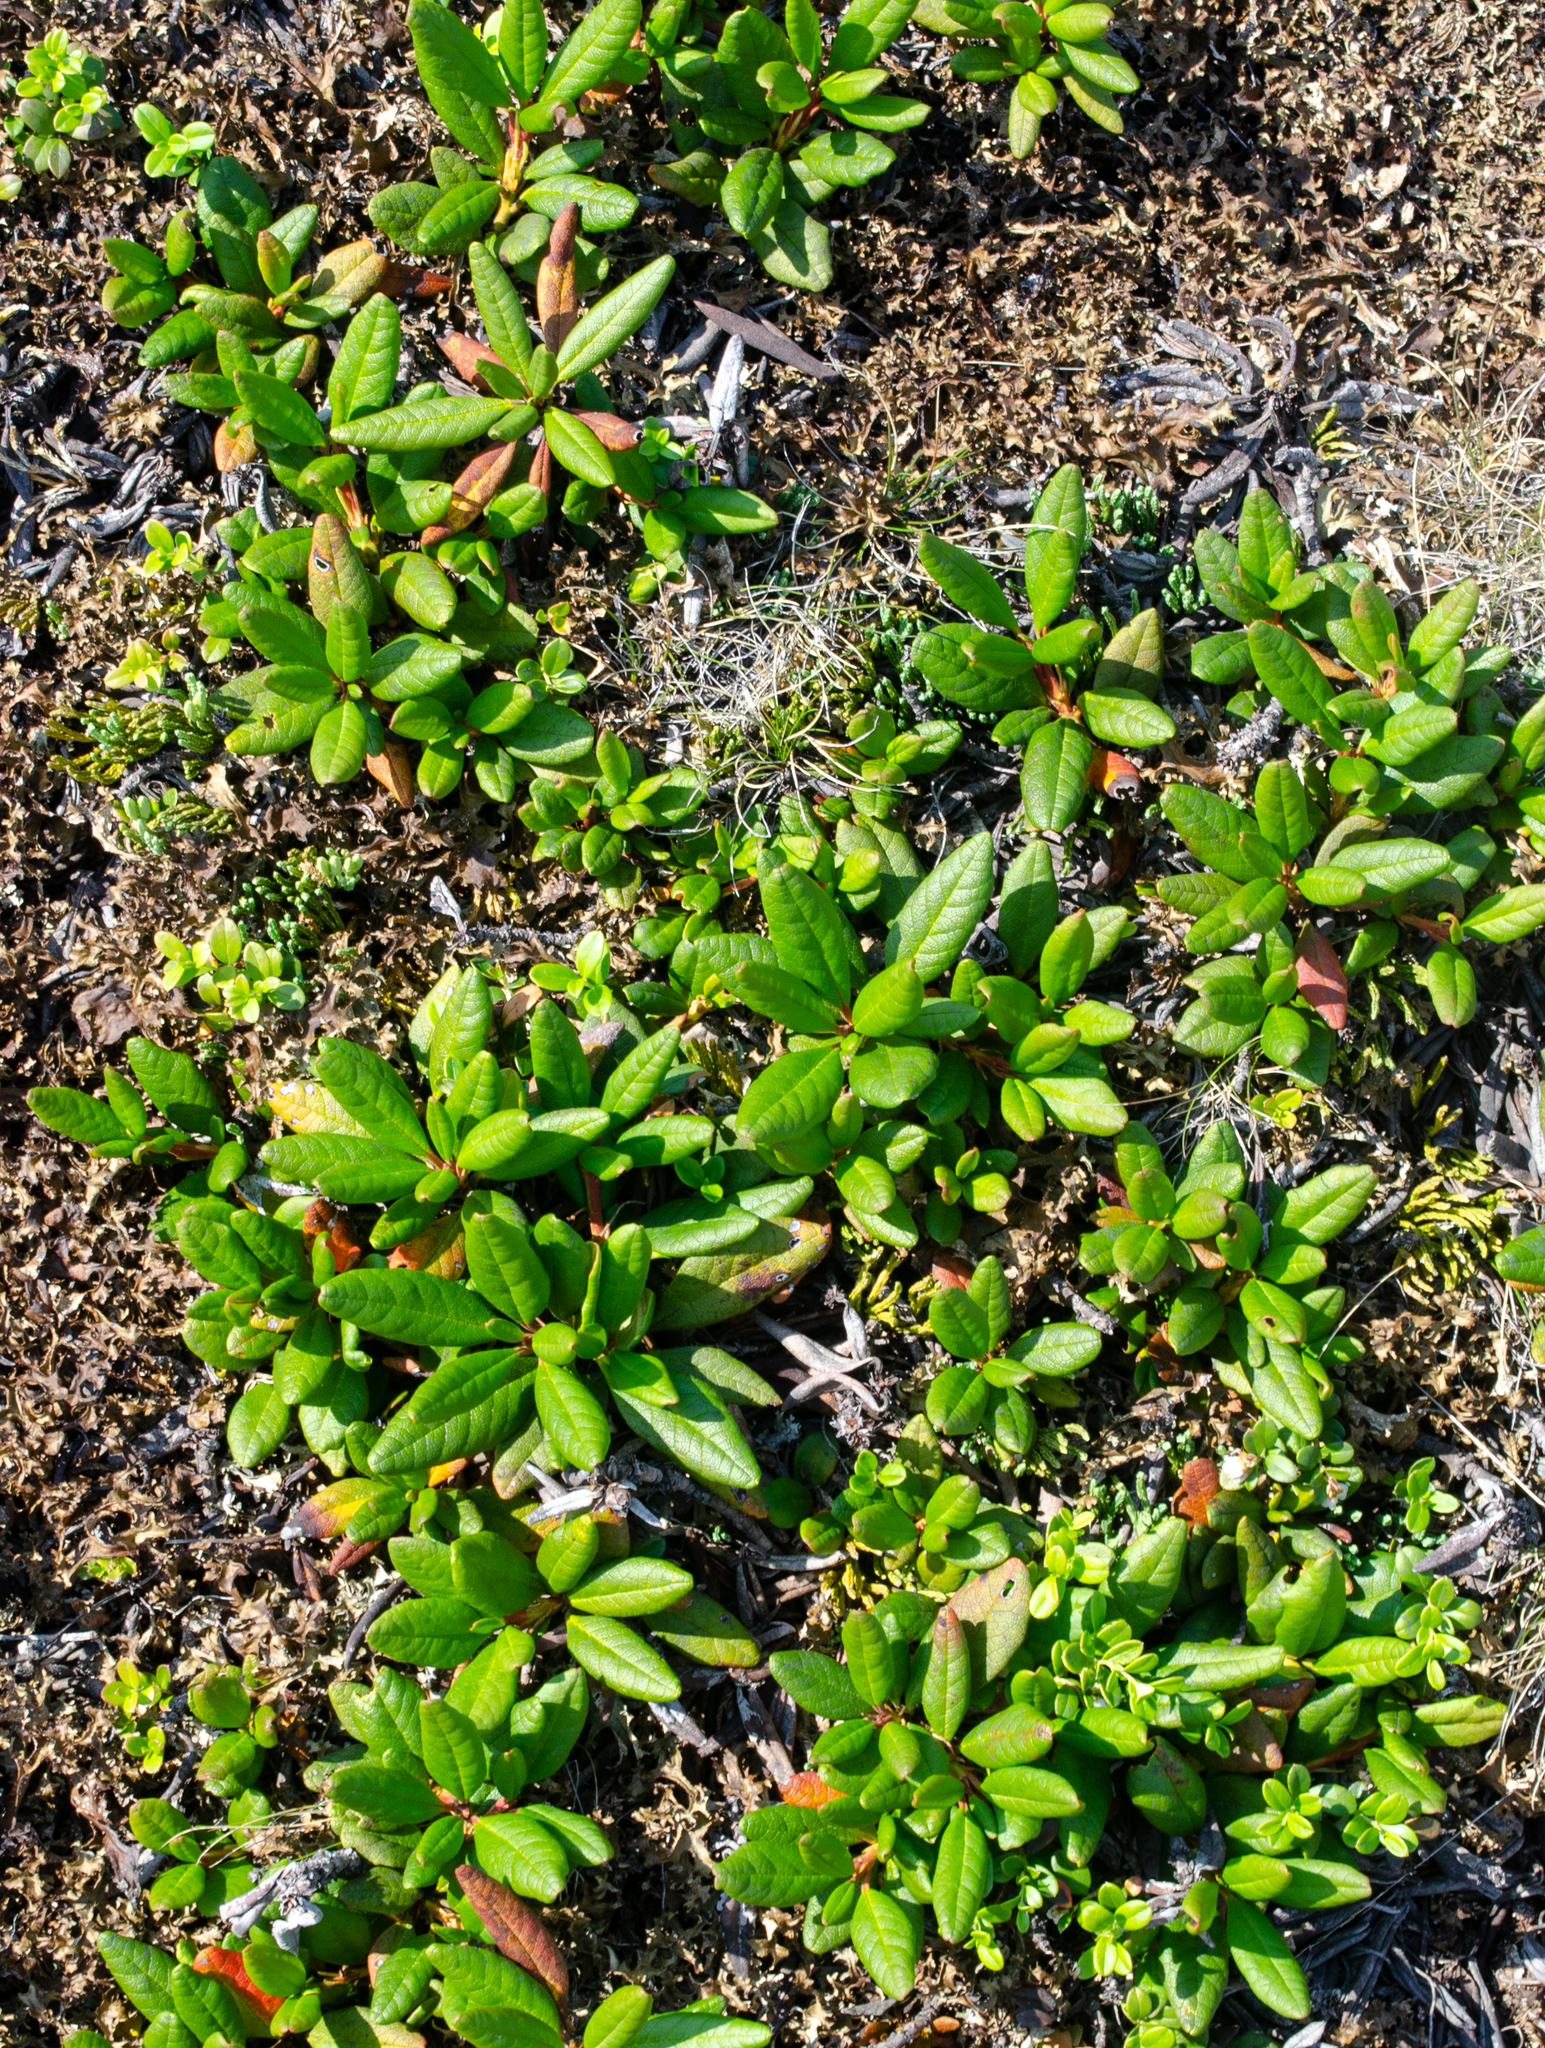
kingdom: Plantae
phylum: Tracheophyta
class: Magnoliopsida
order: Ericales
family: Ericaceae
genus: Rhododendron
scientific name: Rhododendron aureum
